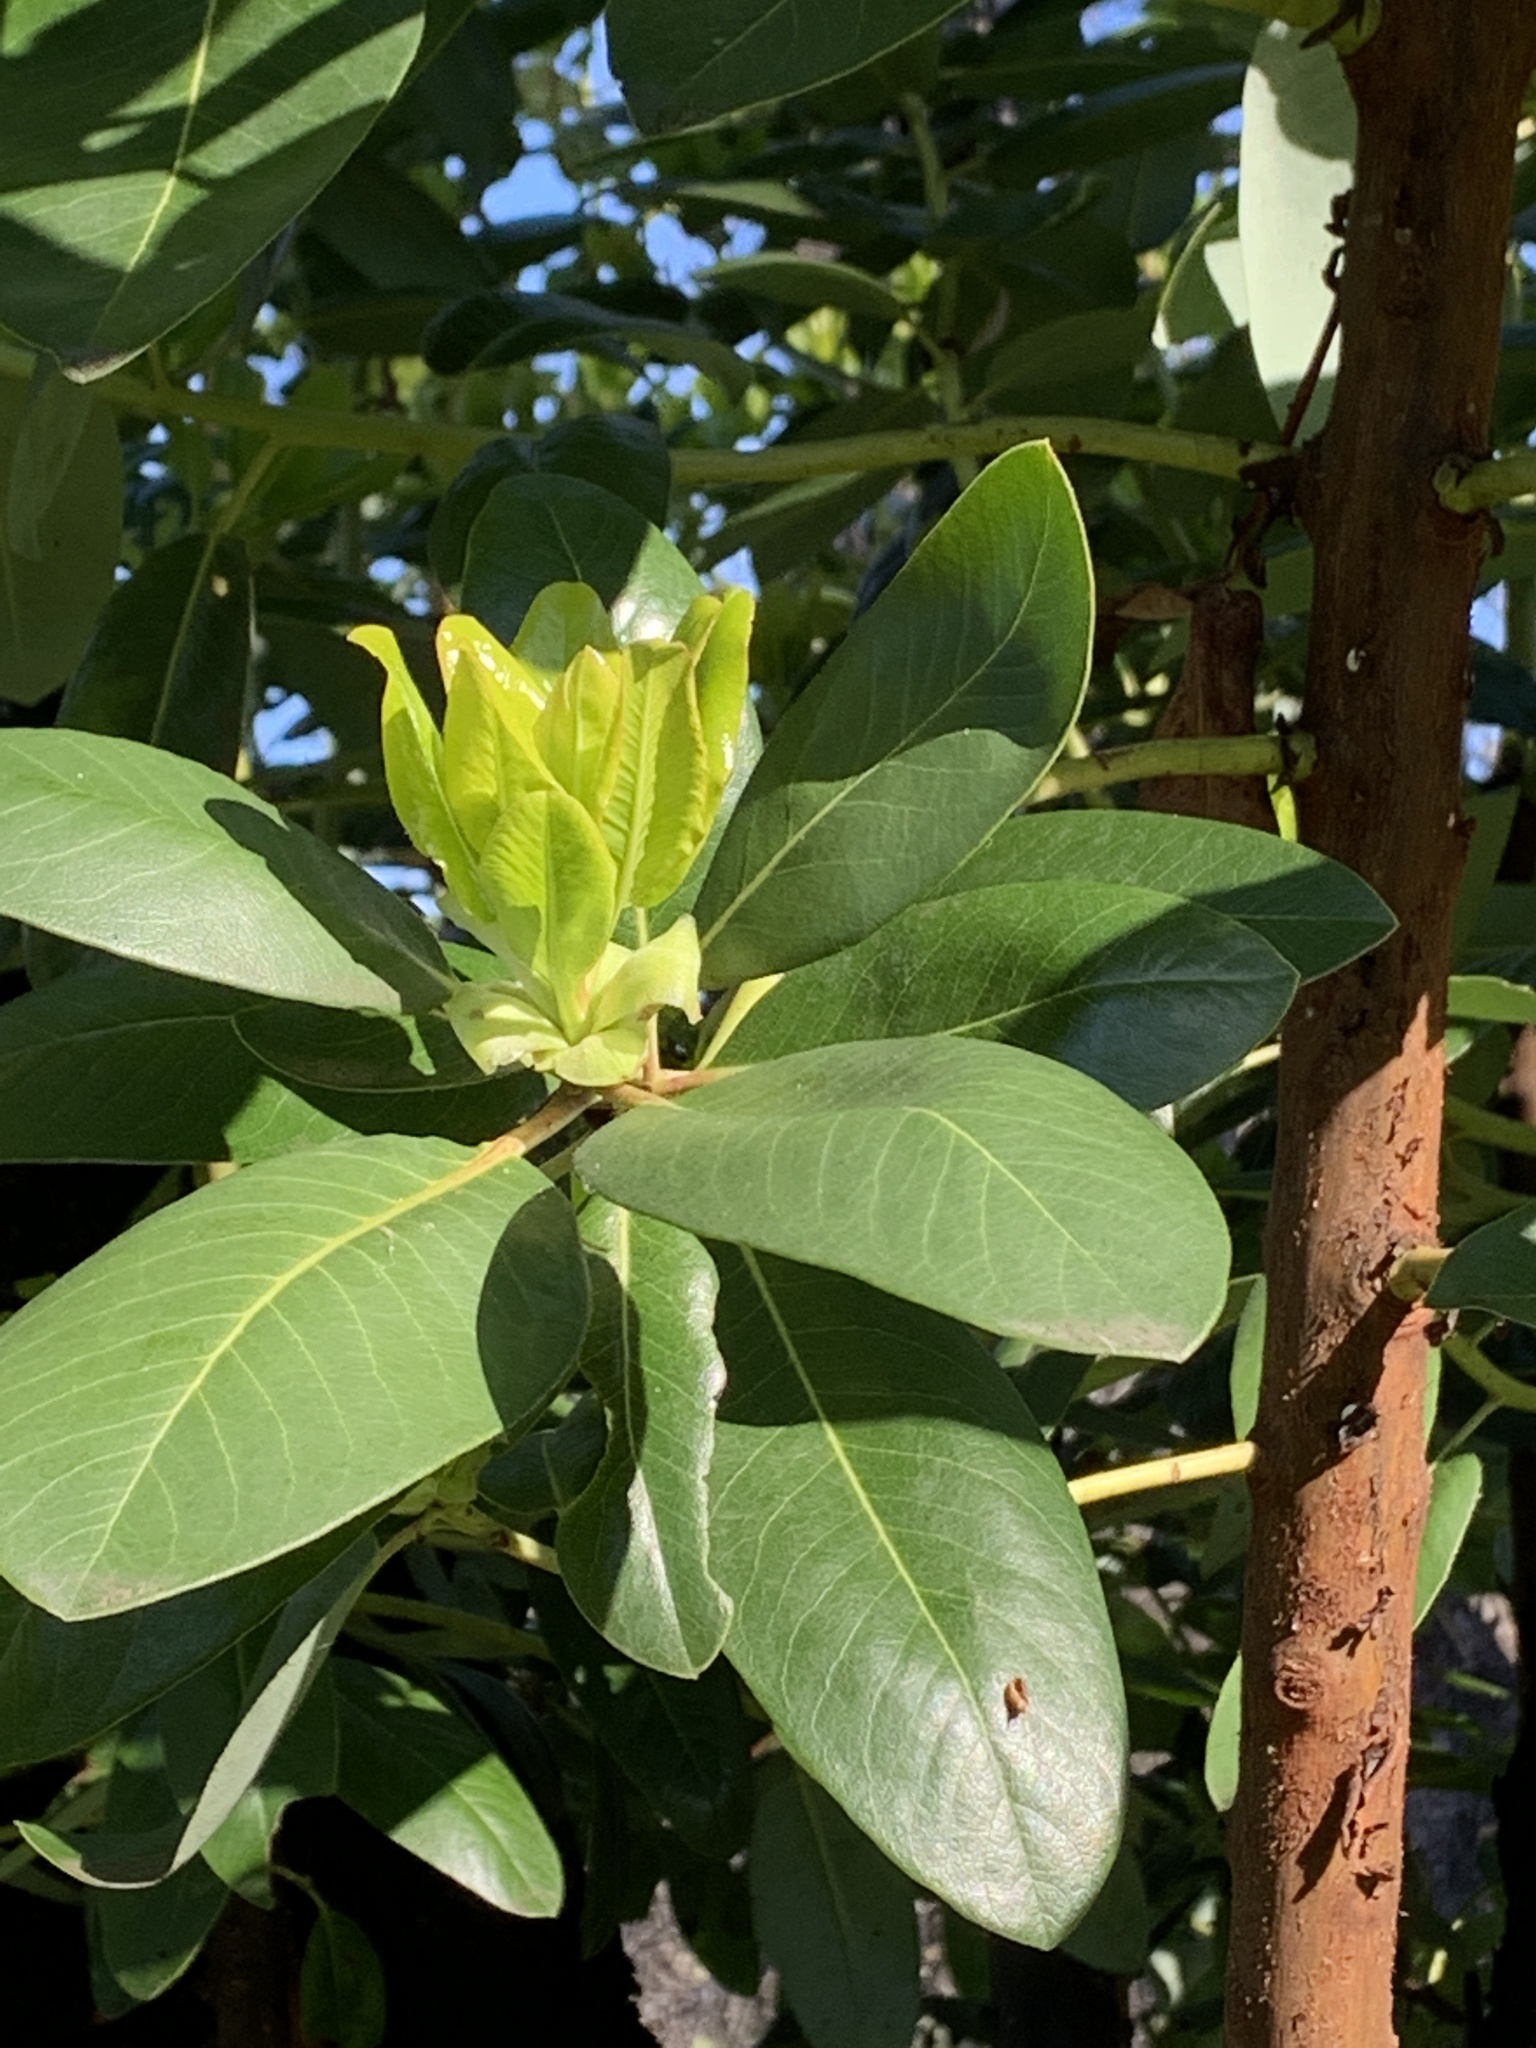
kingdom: Plantae
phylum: Tracheophyta
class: Magnoliopsida
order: Ericales
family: Ericaceae
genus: Arbutus
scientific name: Arbutus menziesii
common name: Pacific madrone
